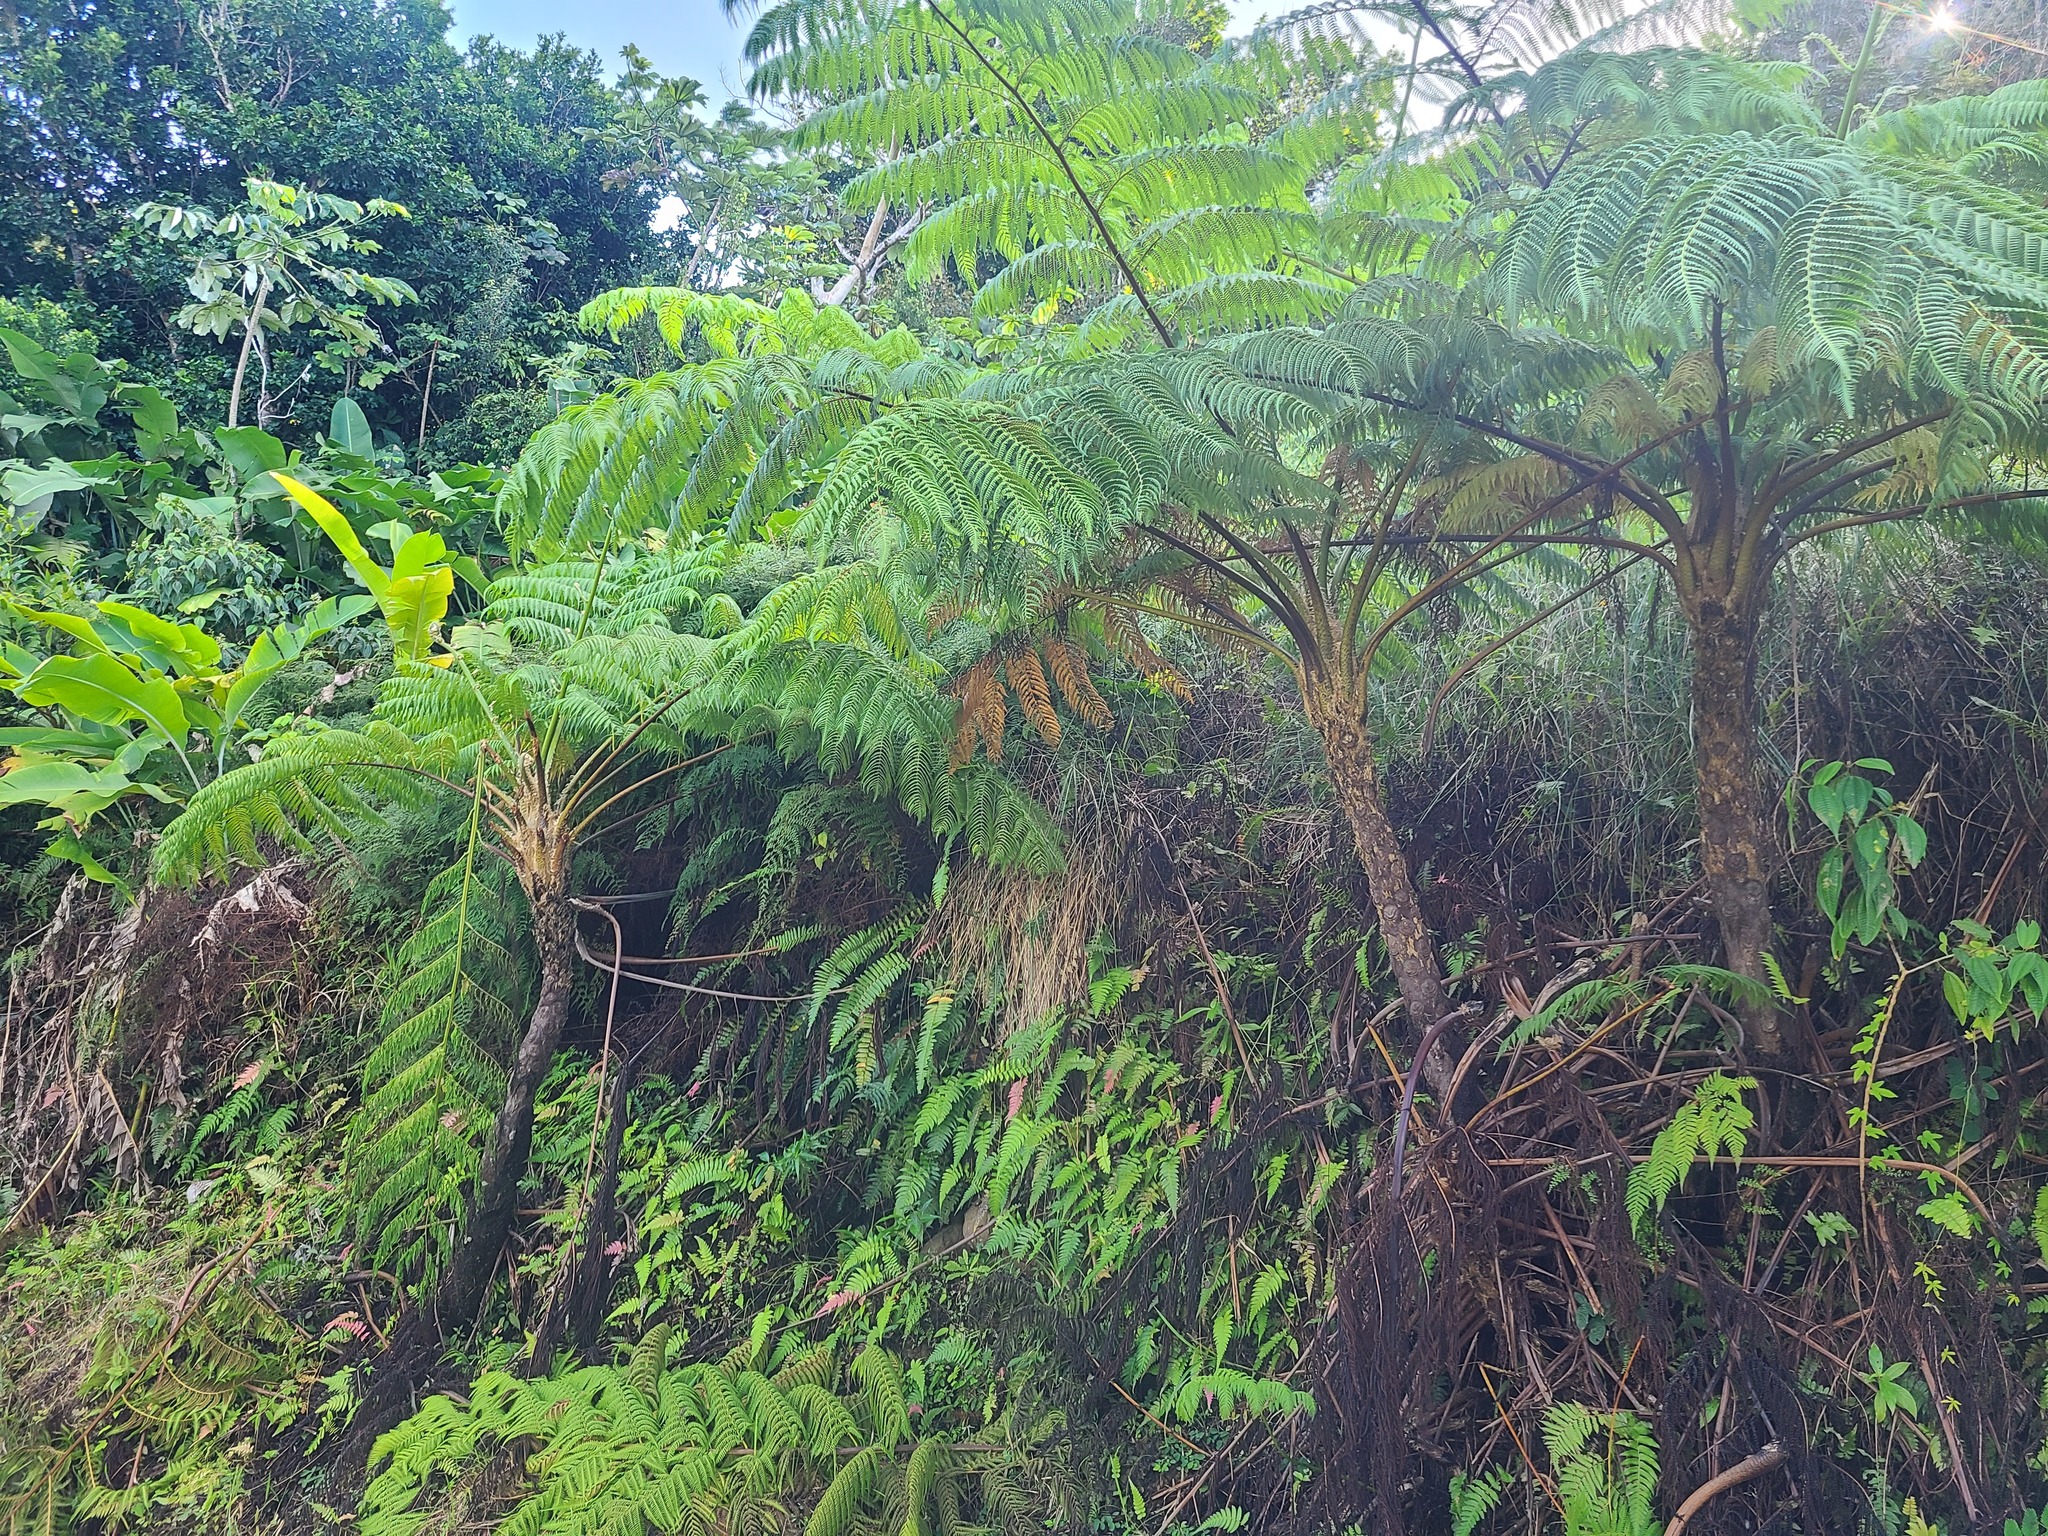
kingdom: Plantae
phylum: Tracheophyta
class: Polypodiopsida
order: Cyatheales
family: Cyatheaceae
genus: Cyathea
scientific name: Cyathea arborea
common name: West indian treefern
